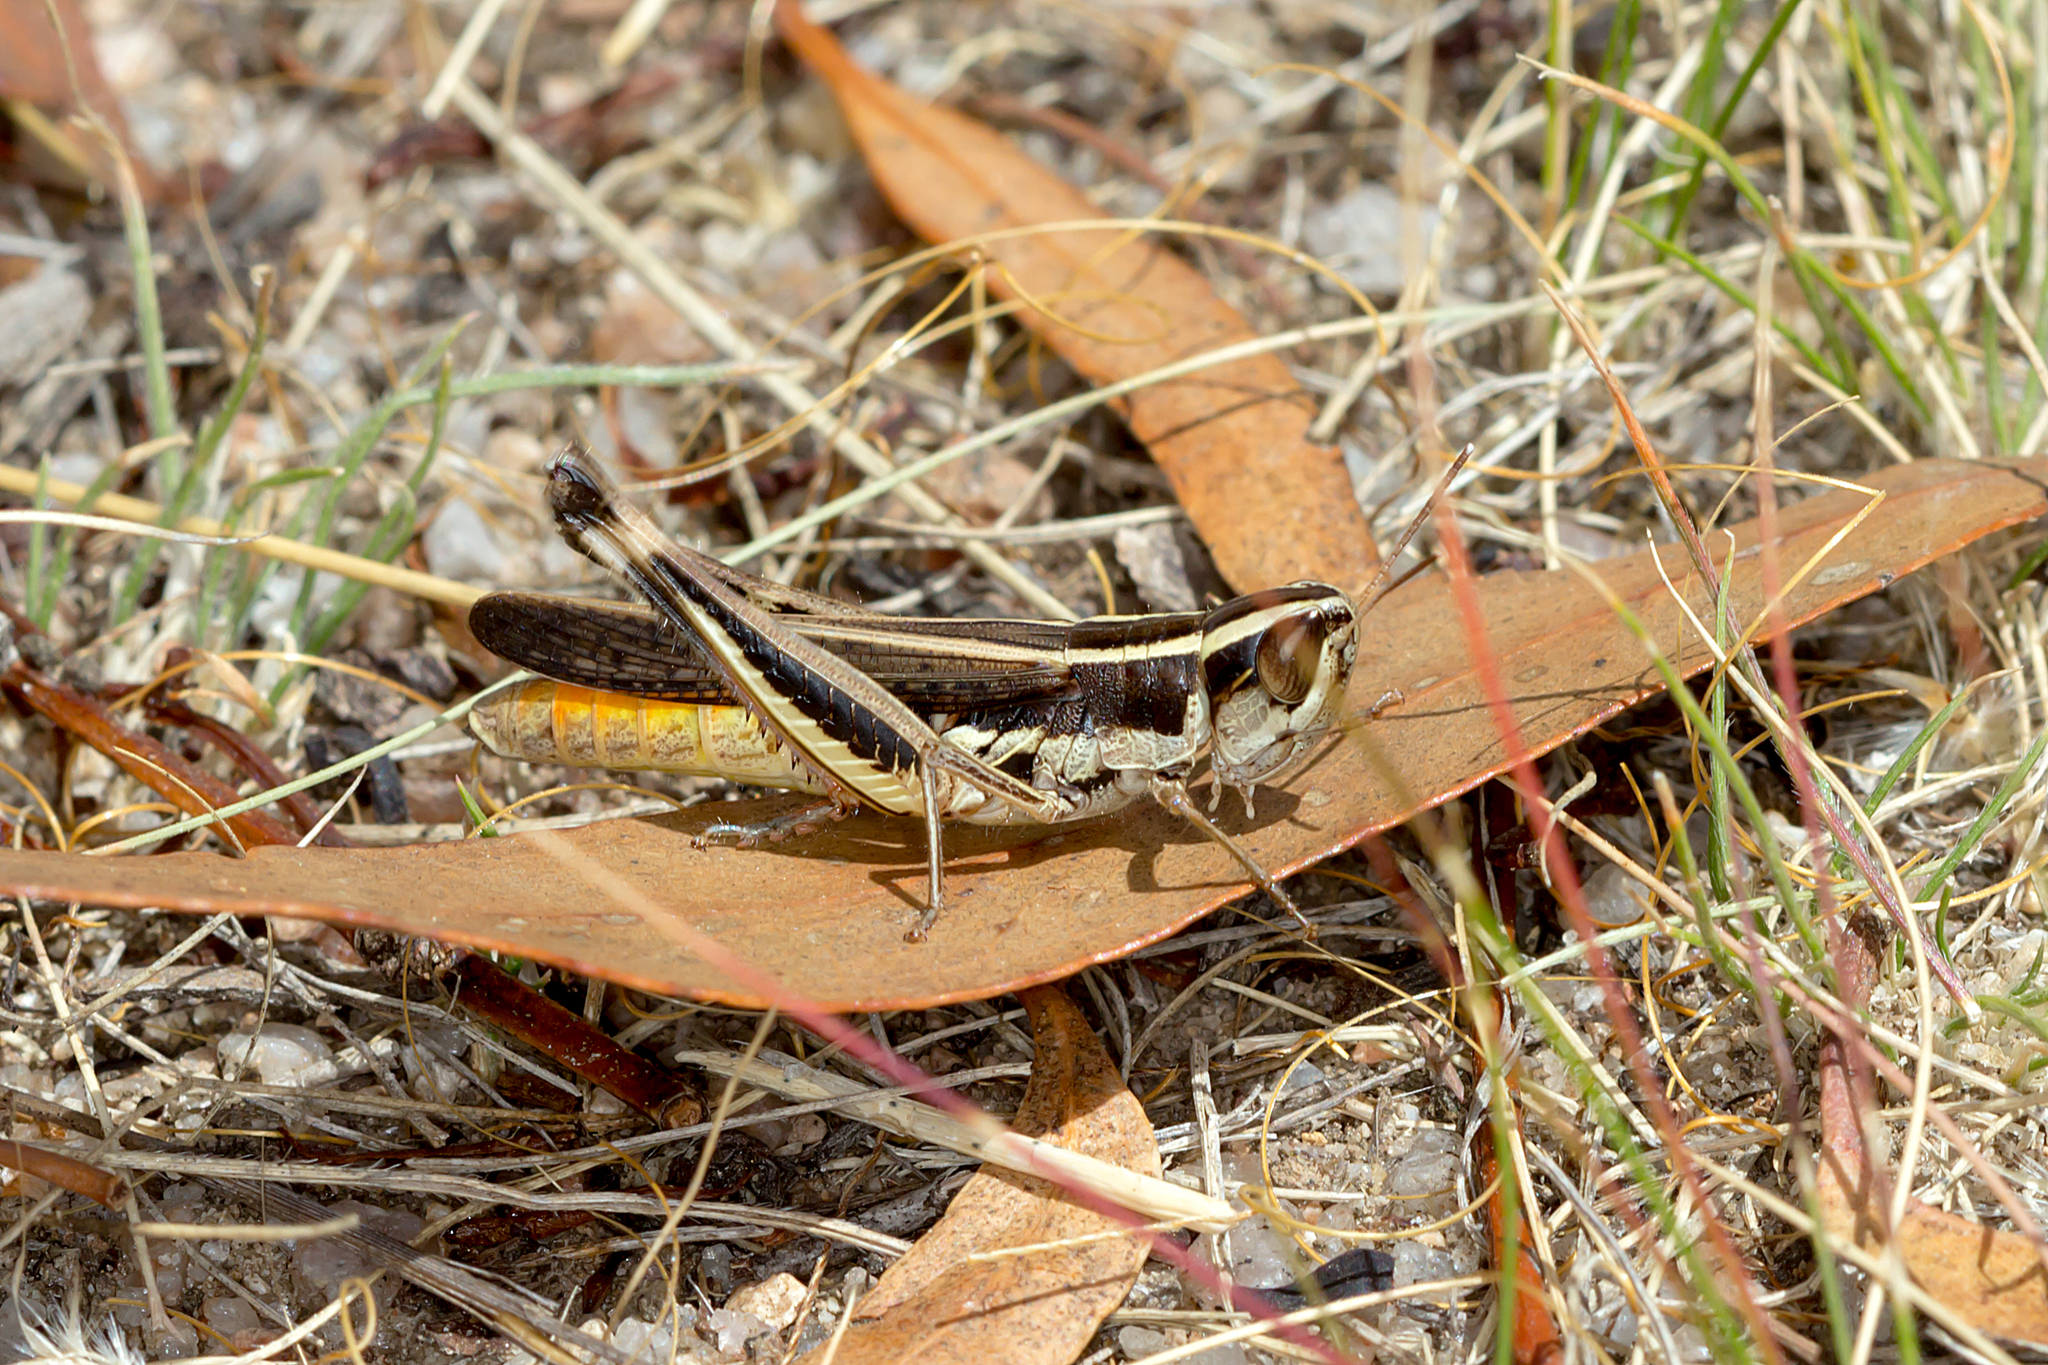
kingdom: Animalia
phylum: Arthropoda
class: Insecta
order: Orthoptera
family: Acrididae
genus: Macrotona
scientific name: Macrotona securiformis
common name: Inland macrotona
